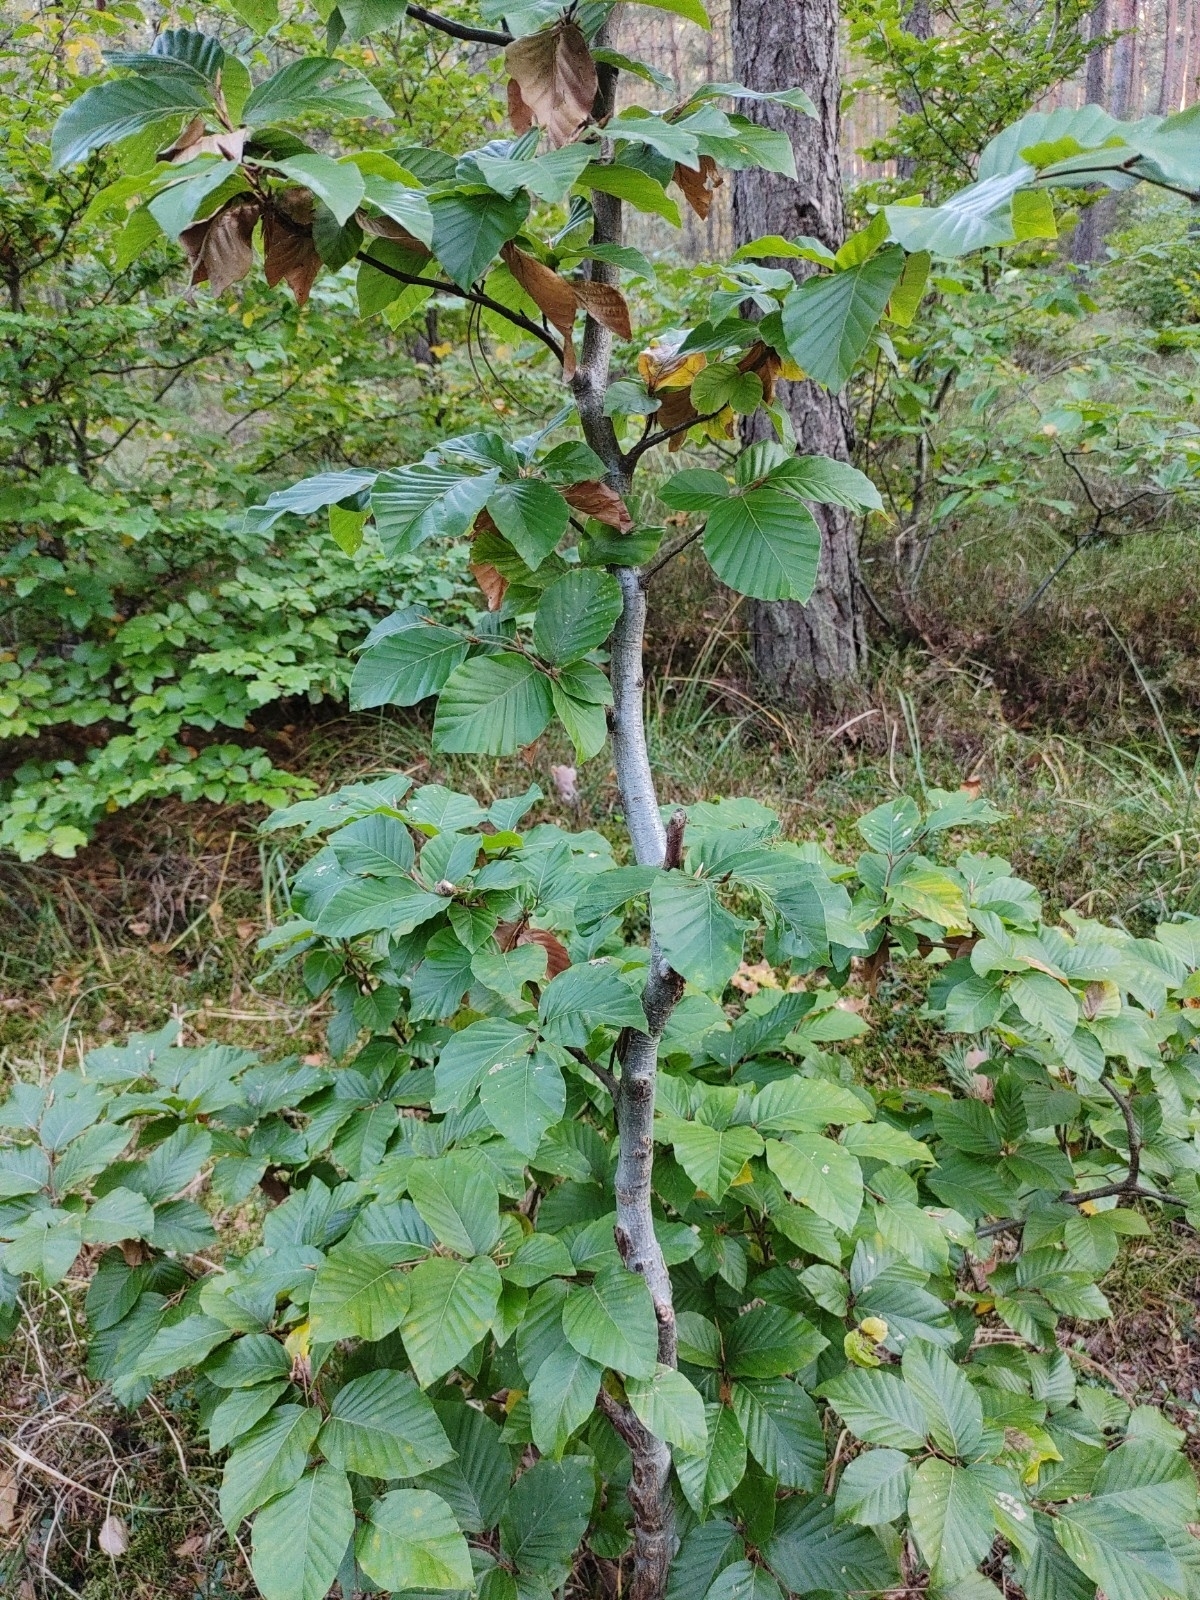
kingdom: Plantae
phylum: Tracheophyta
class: Magnoliopsida
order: Fagales
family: Fagaceae
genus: Fagus
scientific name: Fagus sylvatica
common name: Beech
